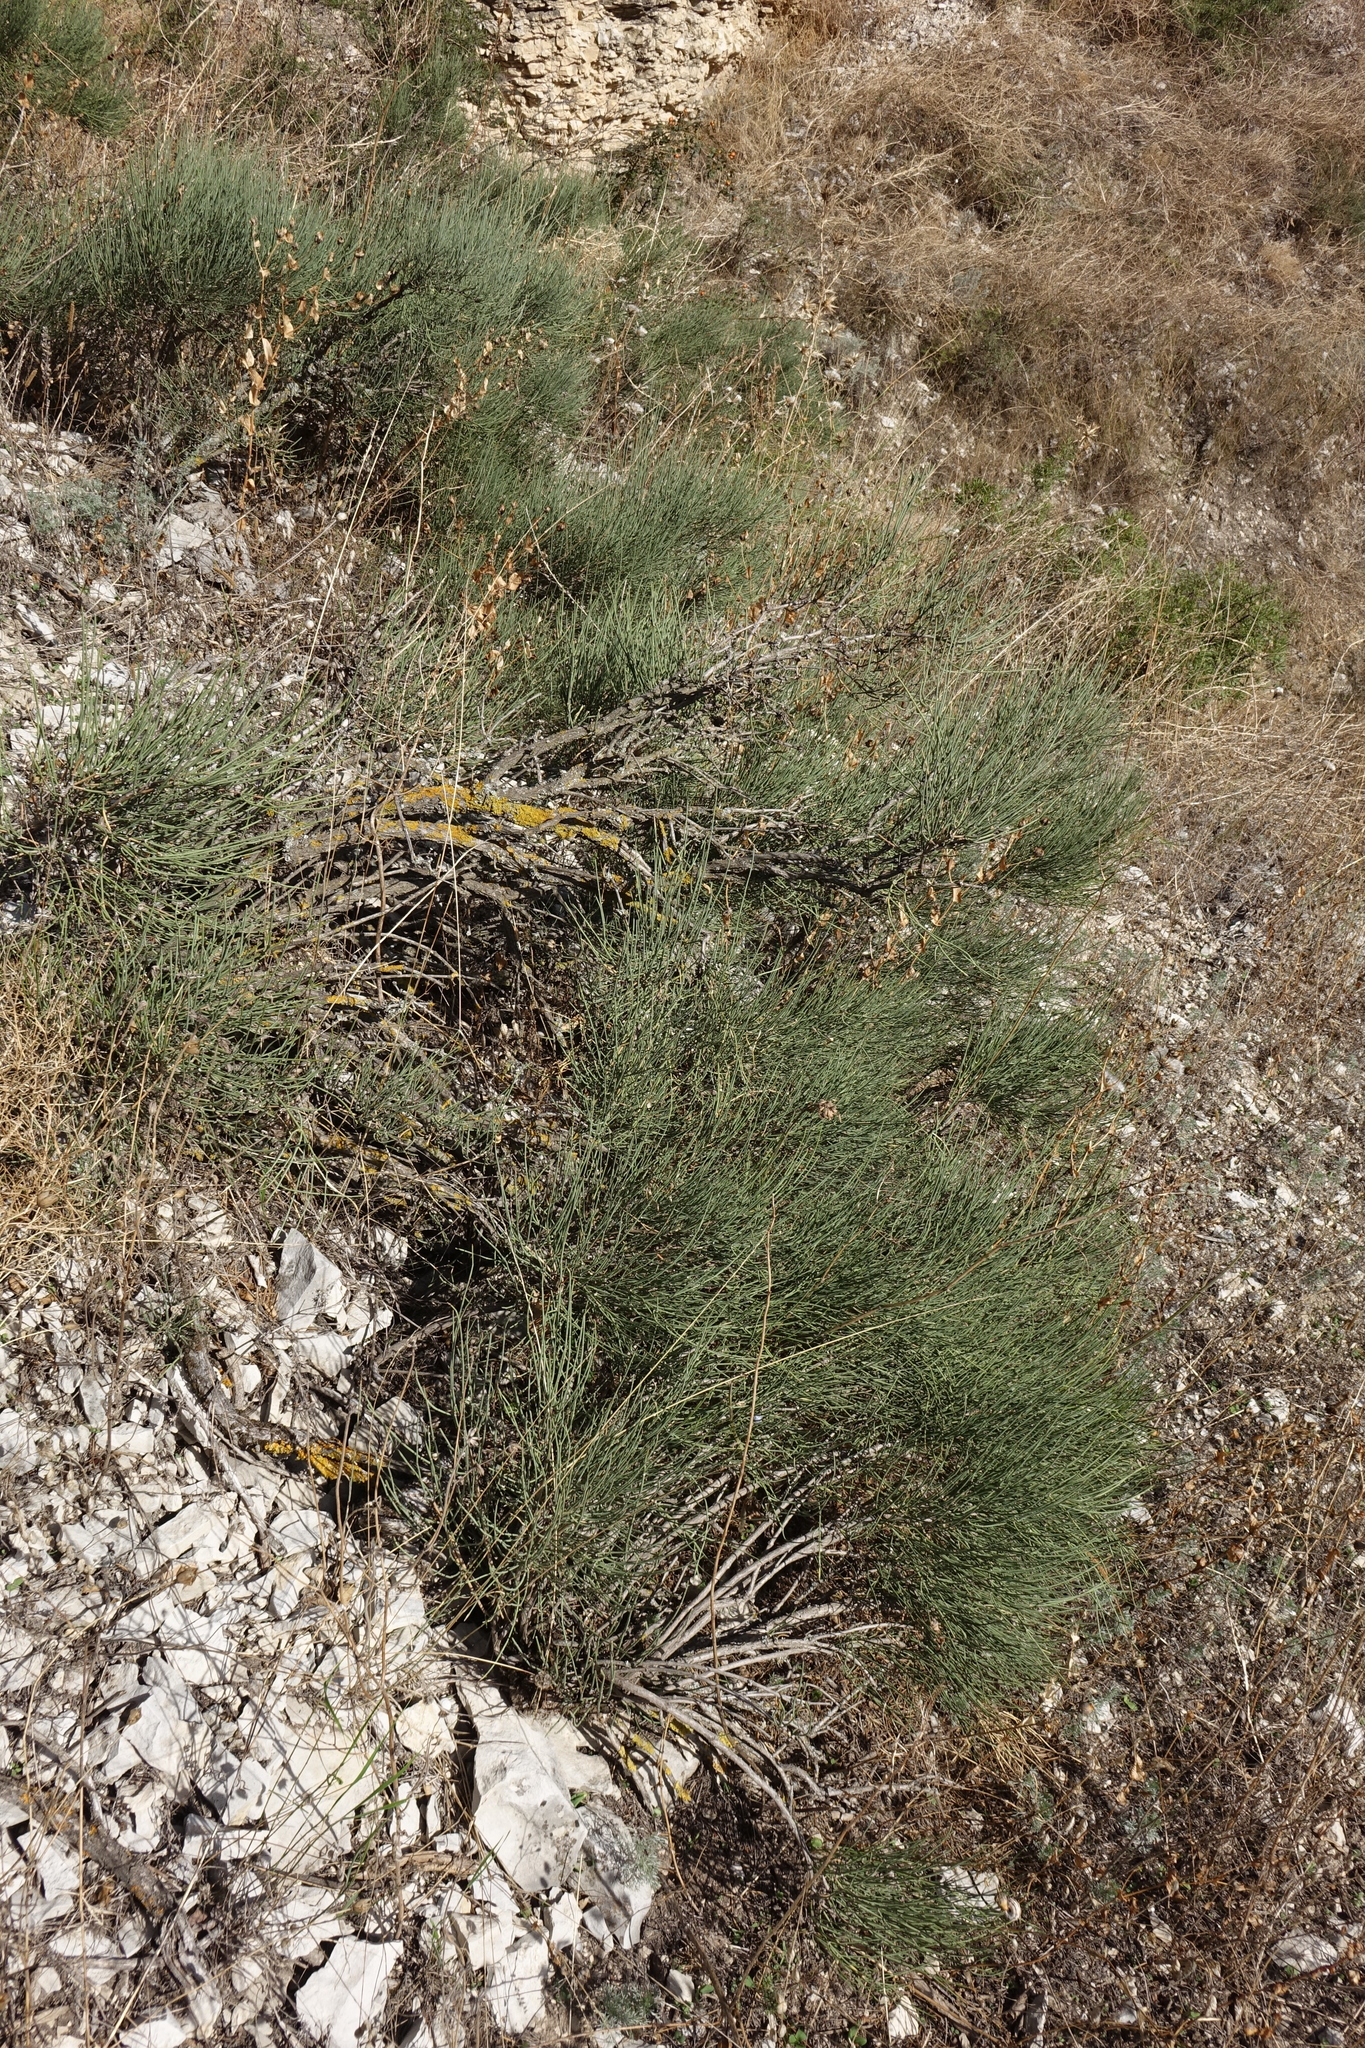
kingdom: Plantae
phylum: Tracheophyta
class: Gnetopsida
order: Ephedrales
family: Ephedraceae
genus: Ephedra
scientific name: Ephedra procera
